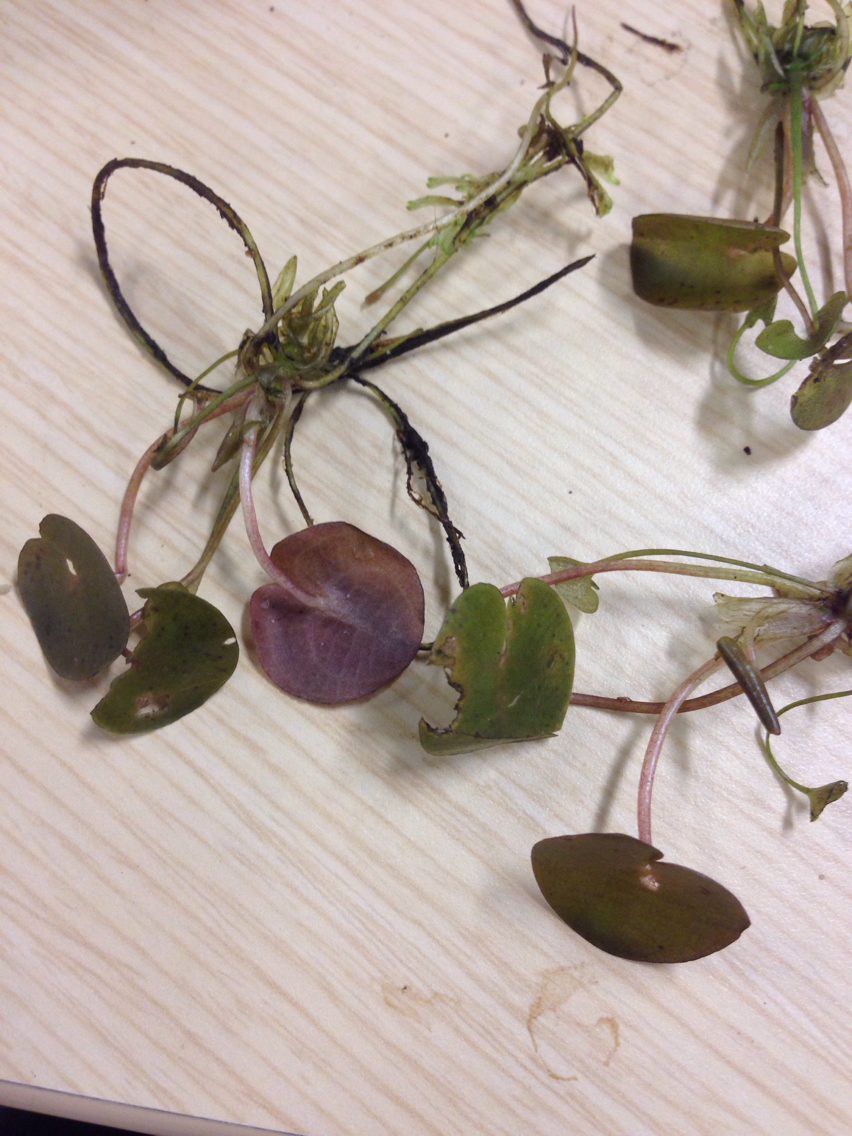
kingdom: Plantae
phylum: Tracheophyta
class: Liliopsida
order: Alismatales
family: Hydrocharitaceae
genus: Hydrocharis
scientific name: Hydrocharis morsus-ranae
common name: Frogbit
